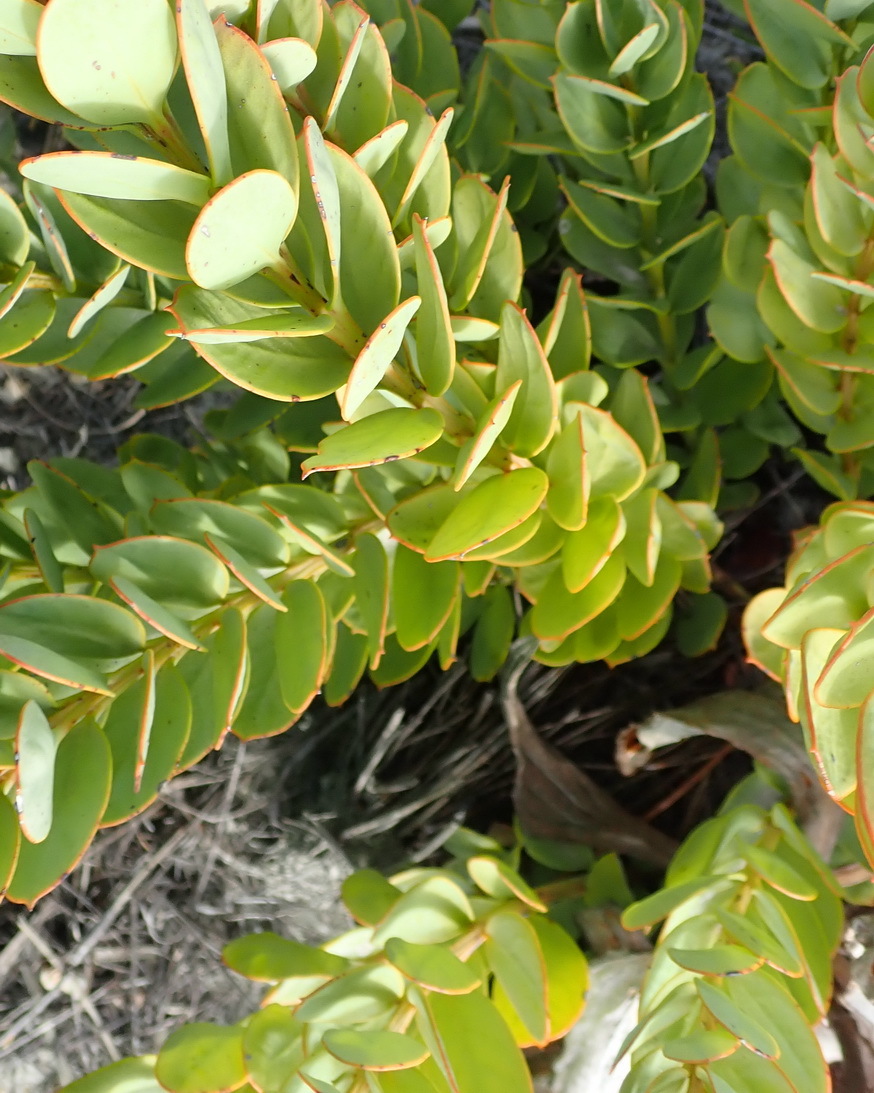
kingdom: Plantae
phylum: Tracheophyta
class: Magnoliopsida
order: Santalales
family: Santalaceae
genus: Osyris
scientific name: Osyris compressa
